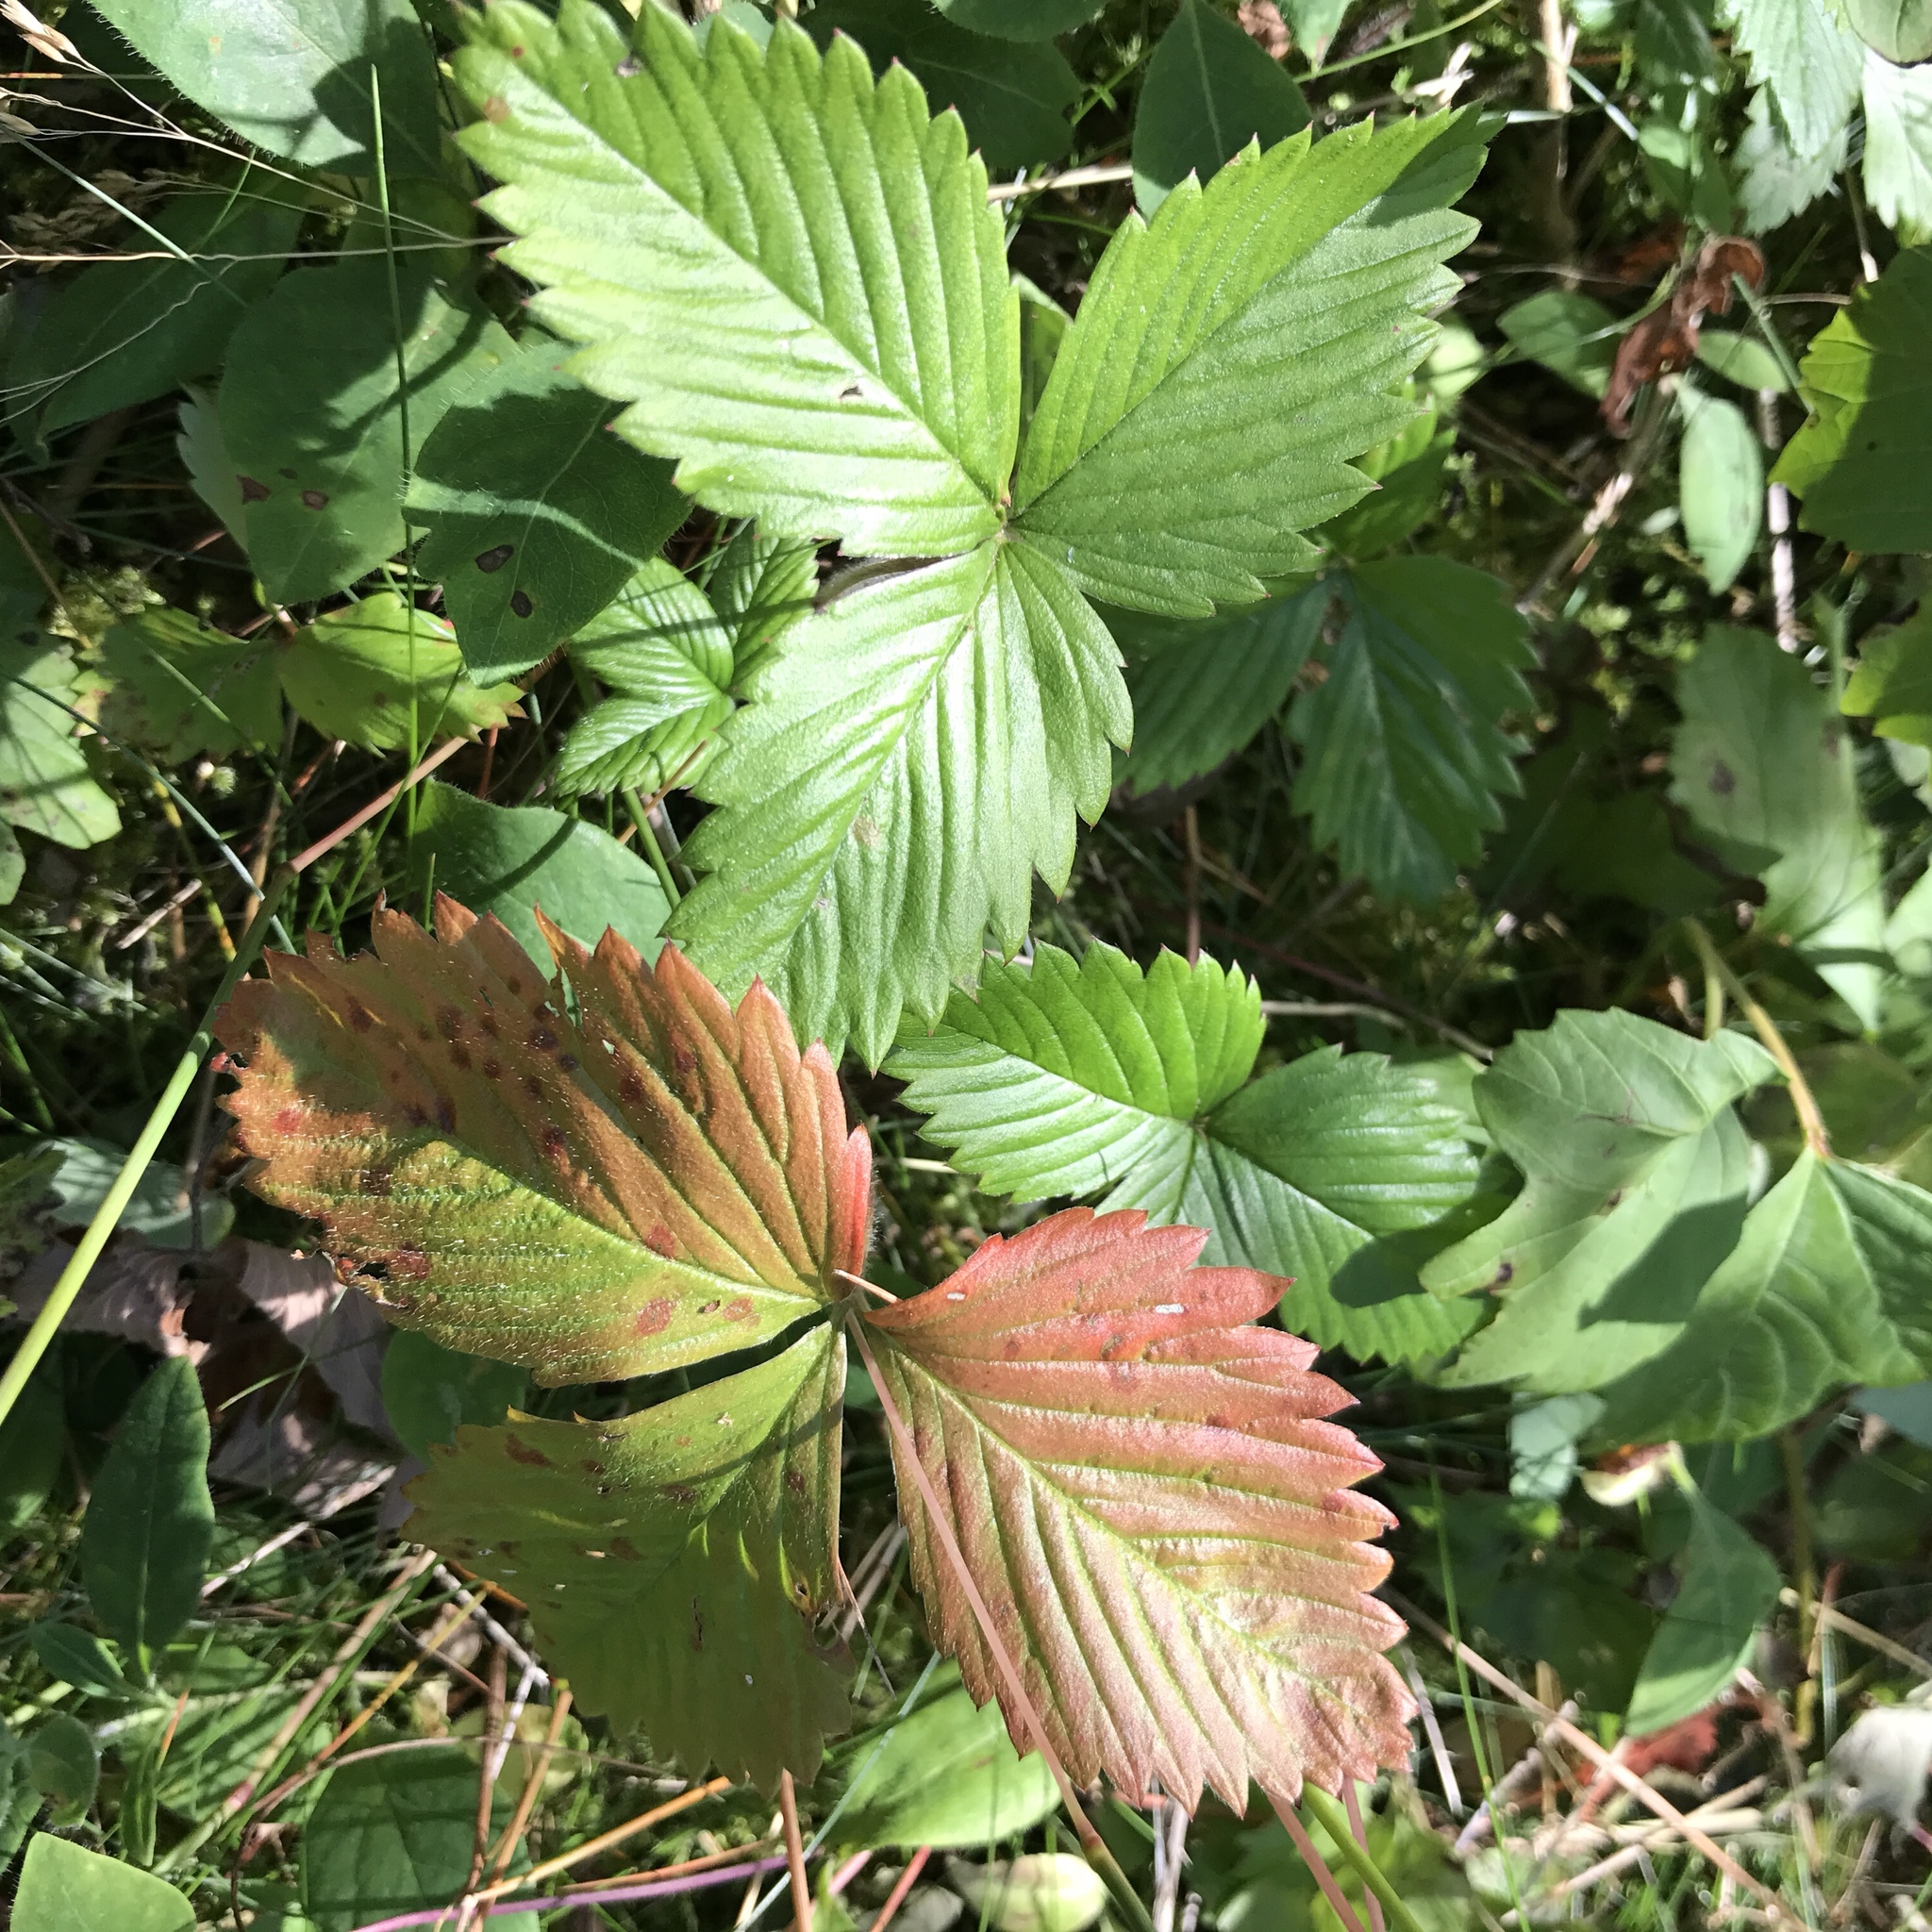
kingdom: Plantae
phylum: Tracheophyta
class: Magnoliopsida
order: Rosales
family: Rosaceae
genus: Fragaria
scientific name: Fragaria vesca
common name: Wild strawberry
